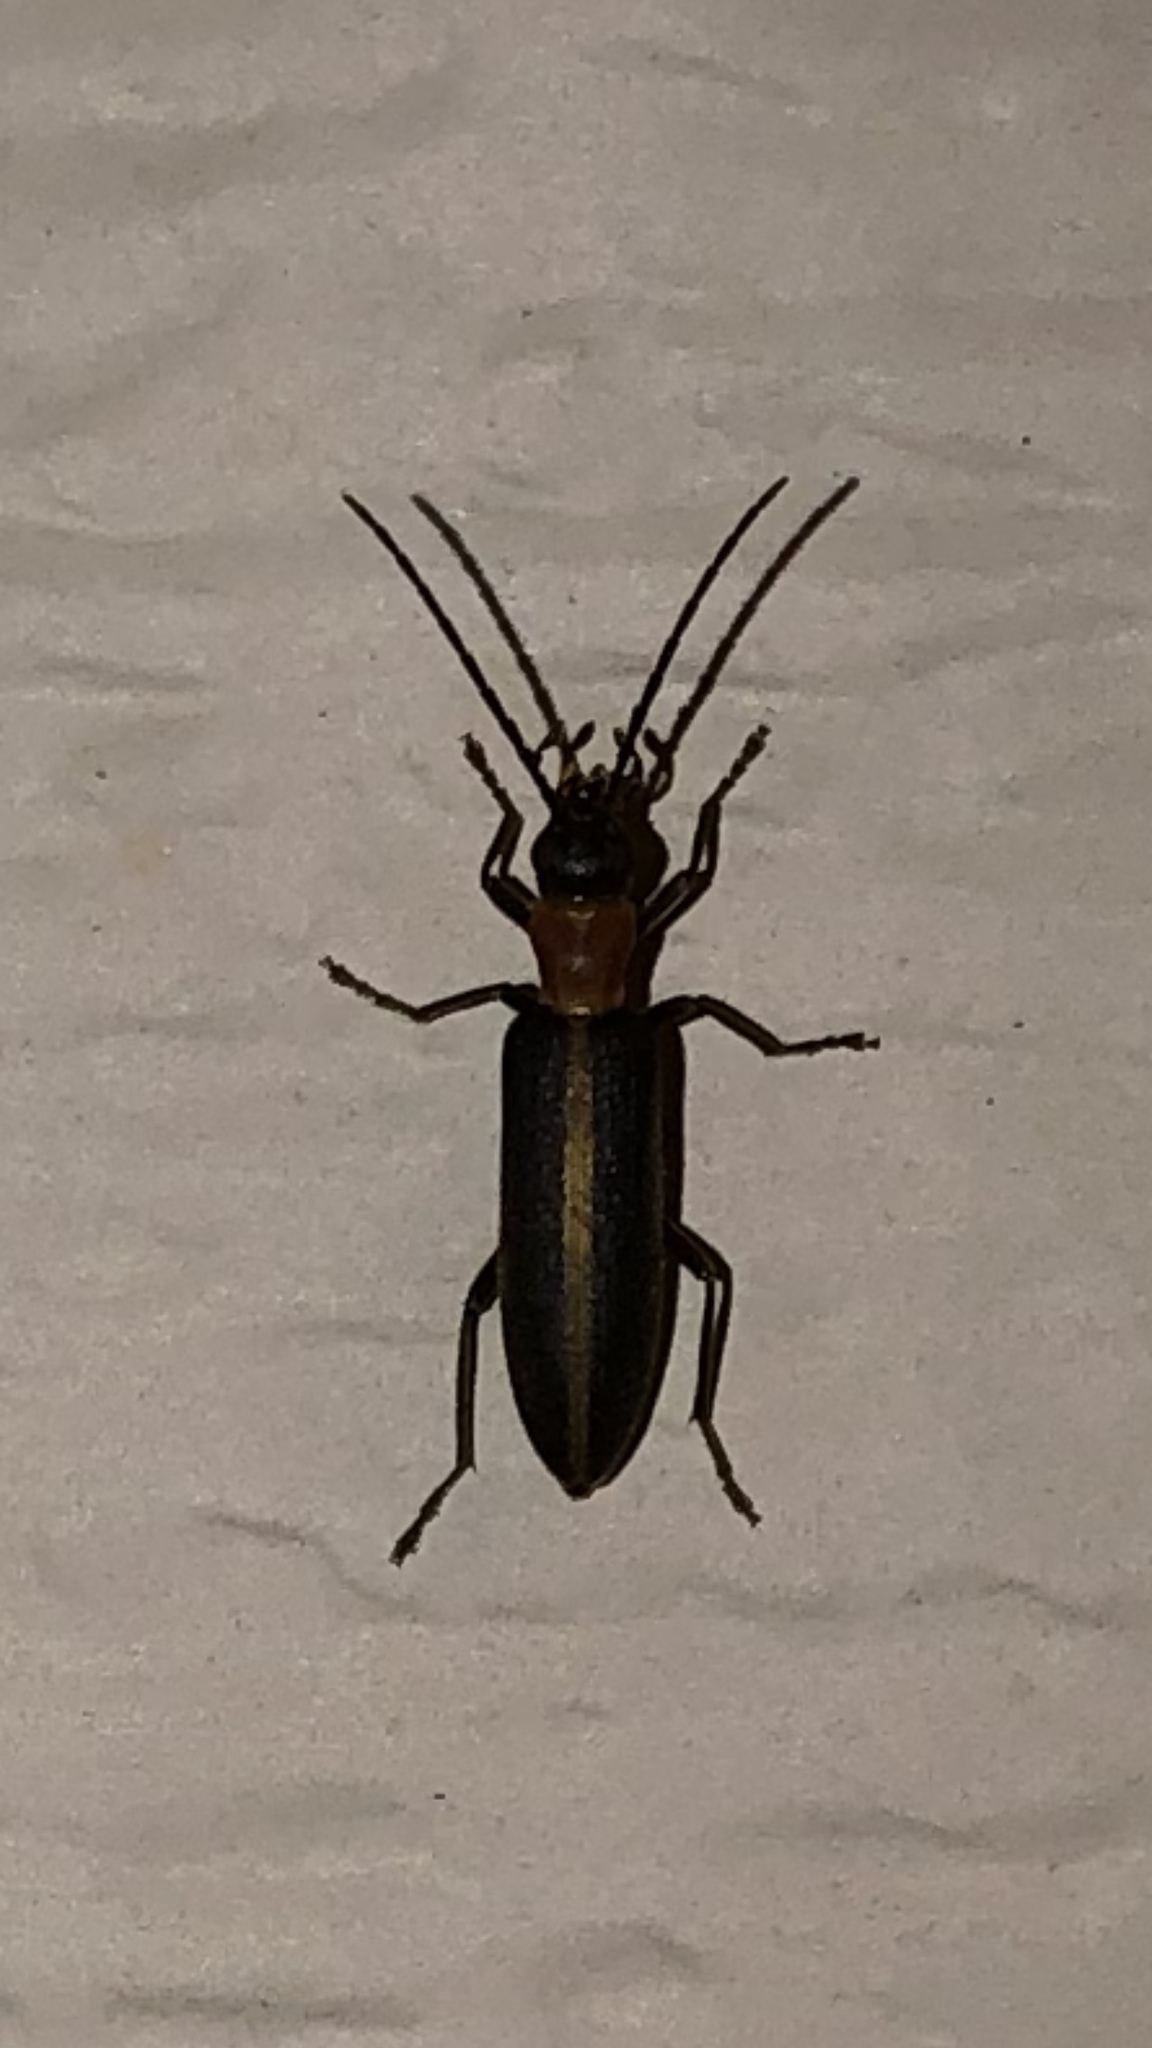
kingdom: Animalia
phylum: Arthropoda
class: Insecta
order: Coleoptera
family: Oedemeridae
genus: Oxycopis
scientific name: Oxycopis mimetica
